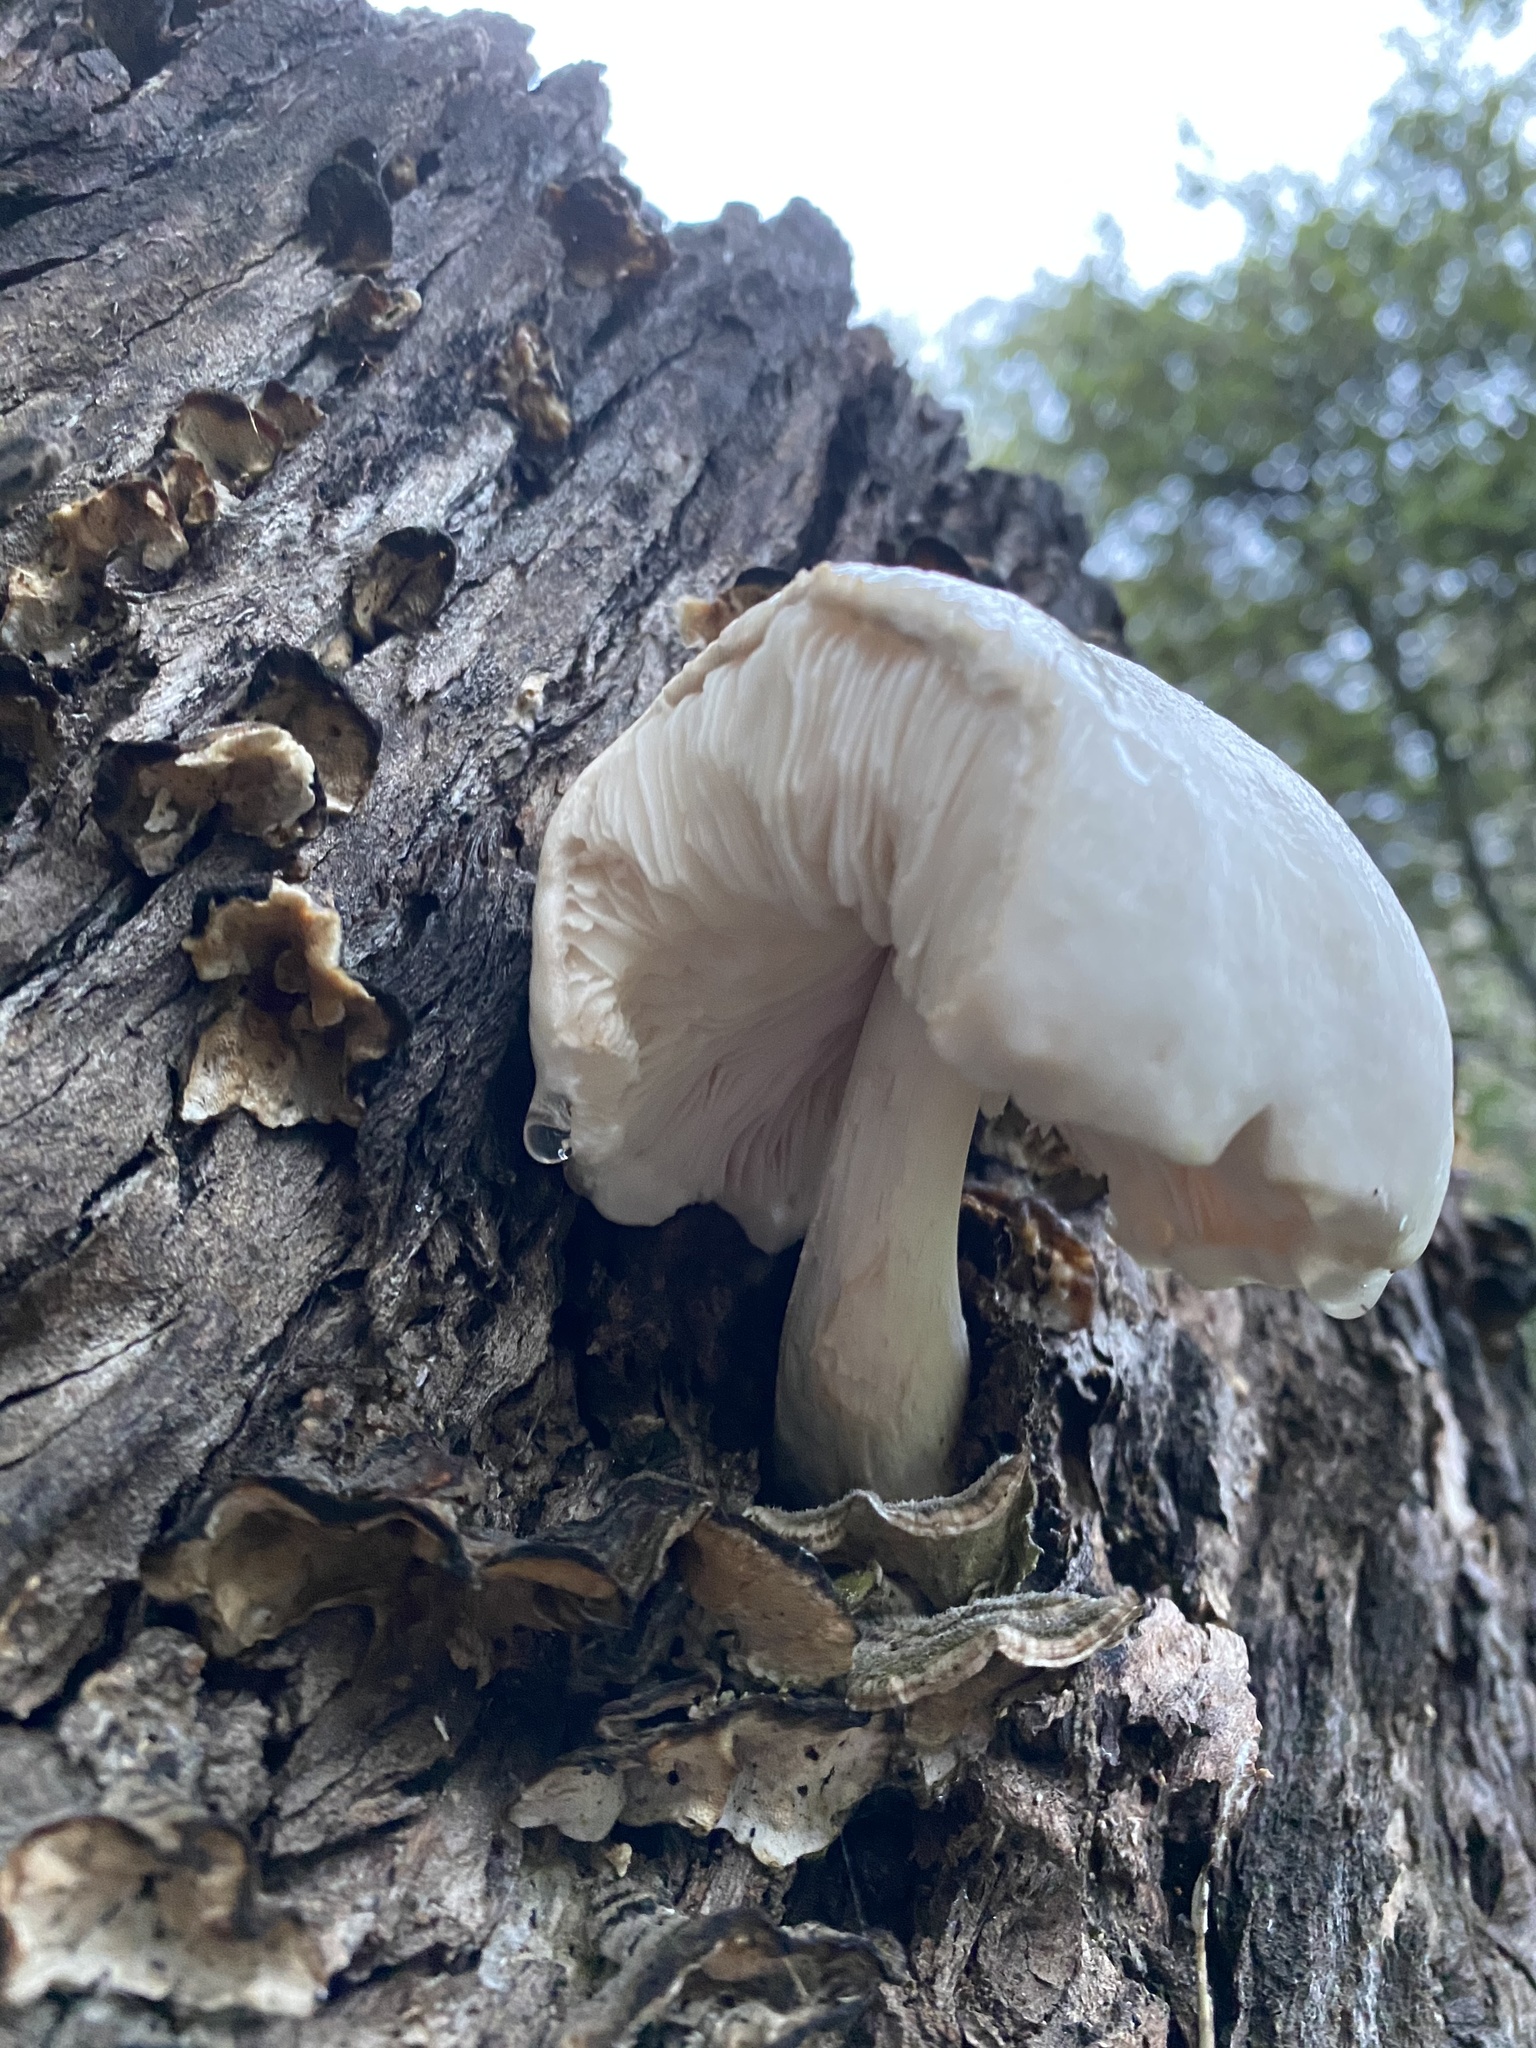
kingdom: Fungi
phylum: Basidiomycota
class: Agaricomycetes
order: Agaricales
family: Pluteaceae
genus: Pluteus
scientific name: Pluteus petasatus
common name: Scaly shield
